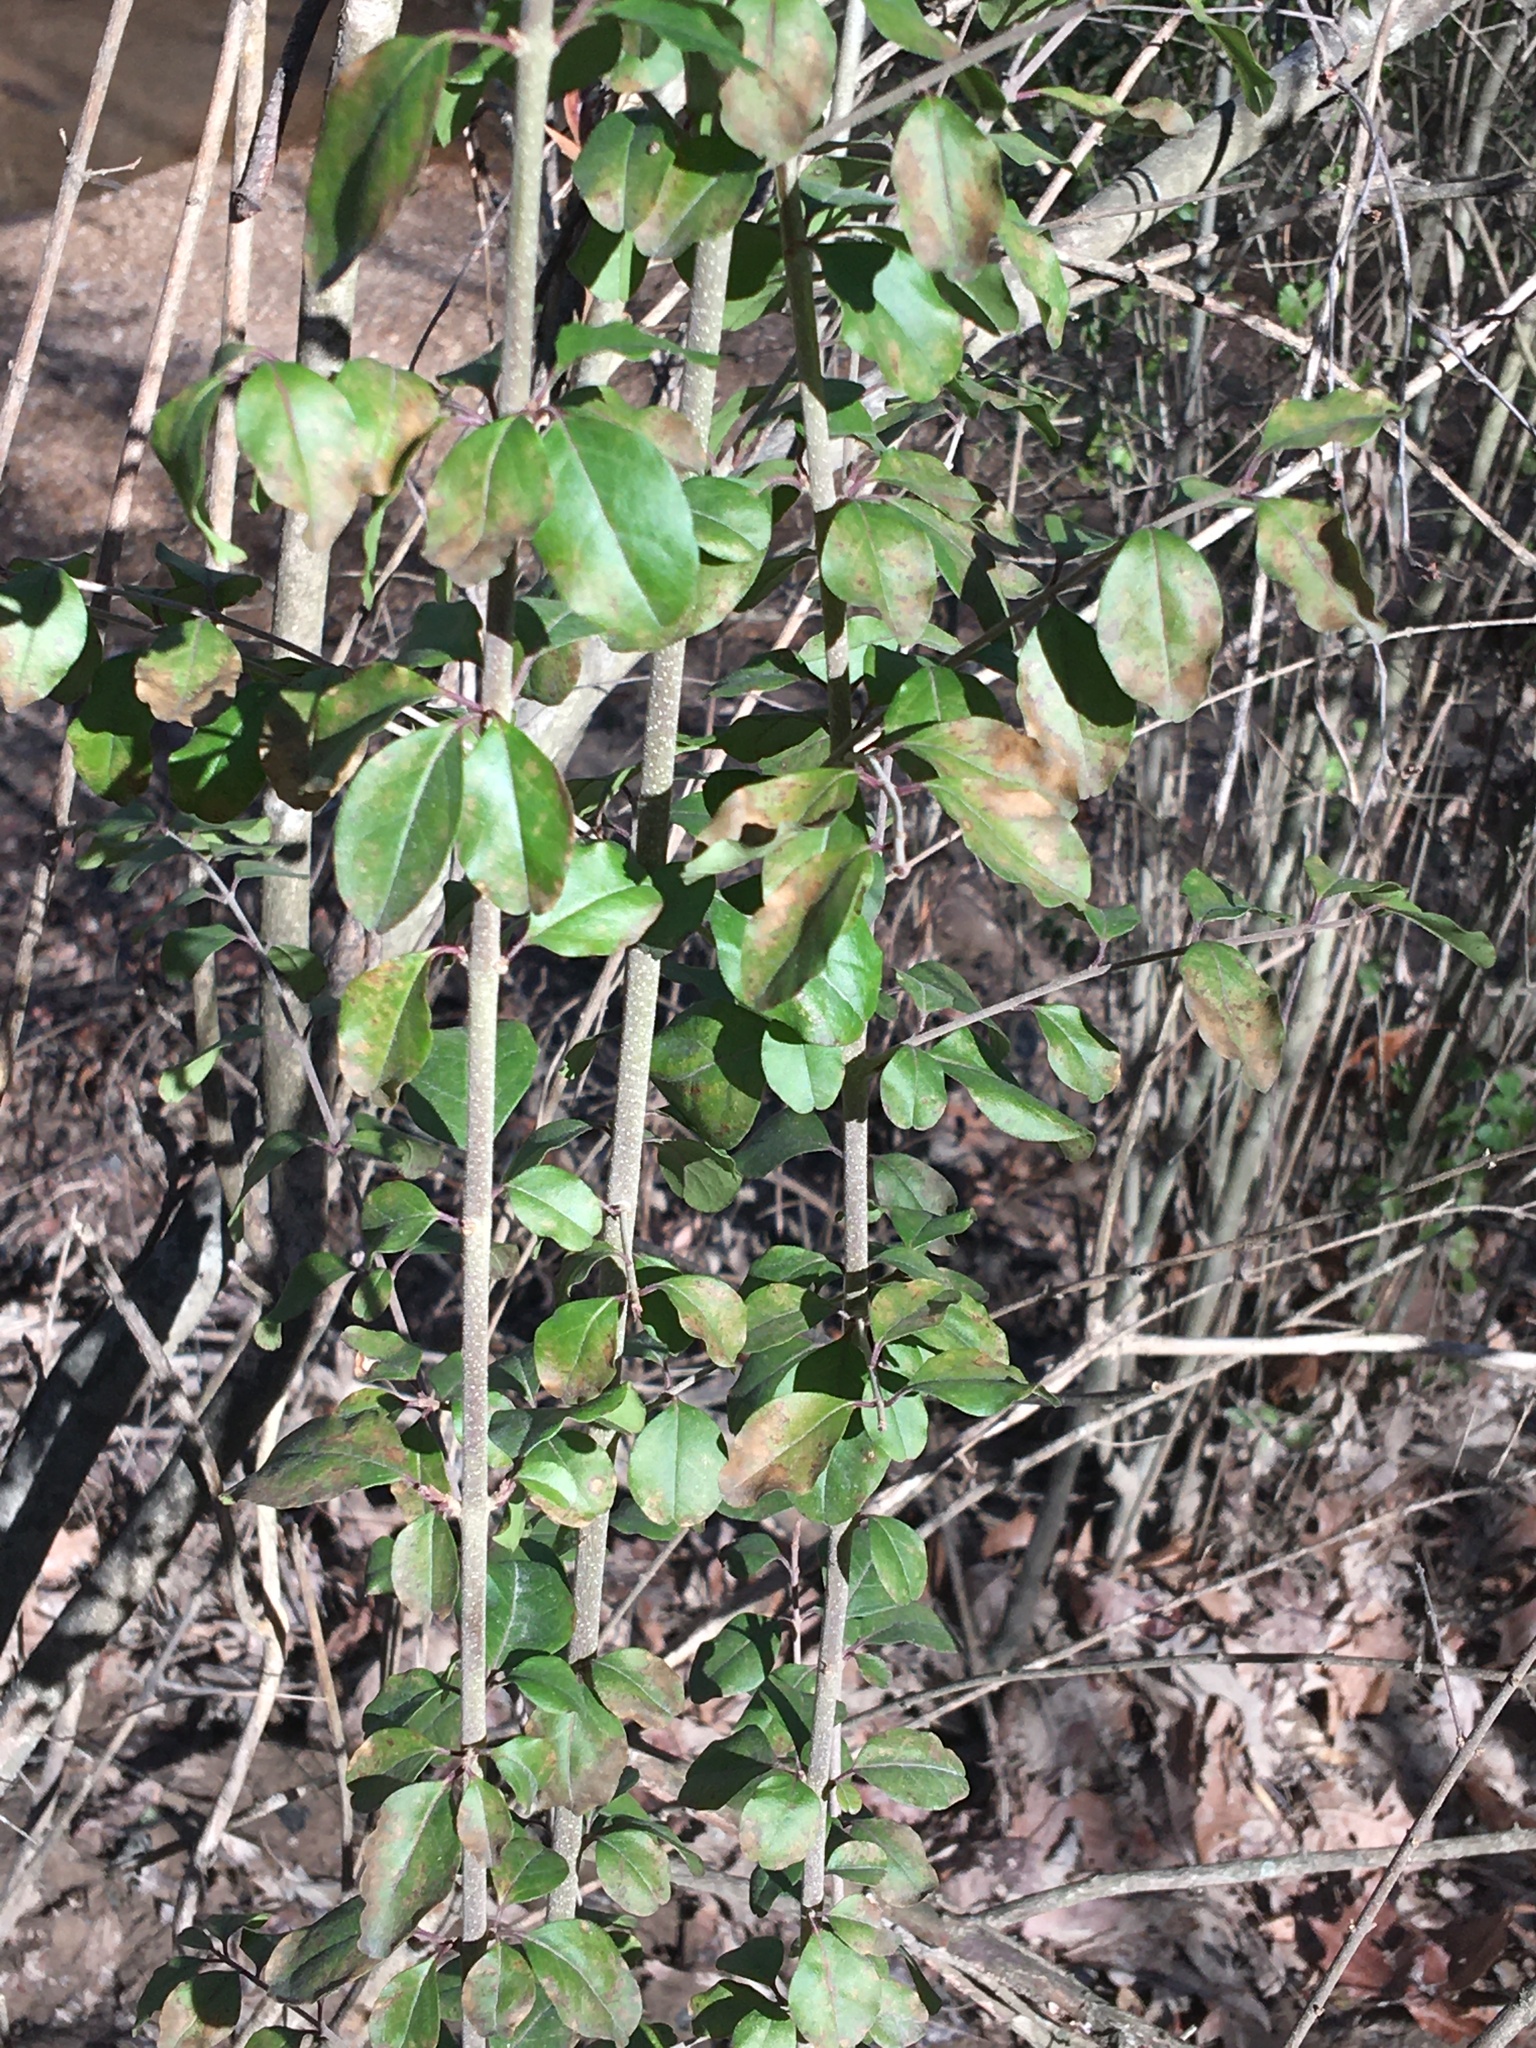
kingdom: Plantae
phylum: Tracheophyta
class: Magnoliopsida
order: Lamiales
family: Oleaceae
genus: Ligustrum
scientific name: Ligustrum sinense
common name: Chinese privet
